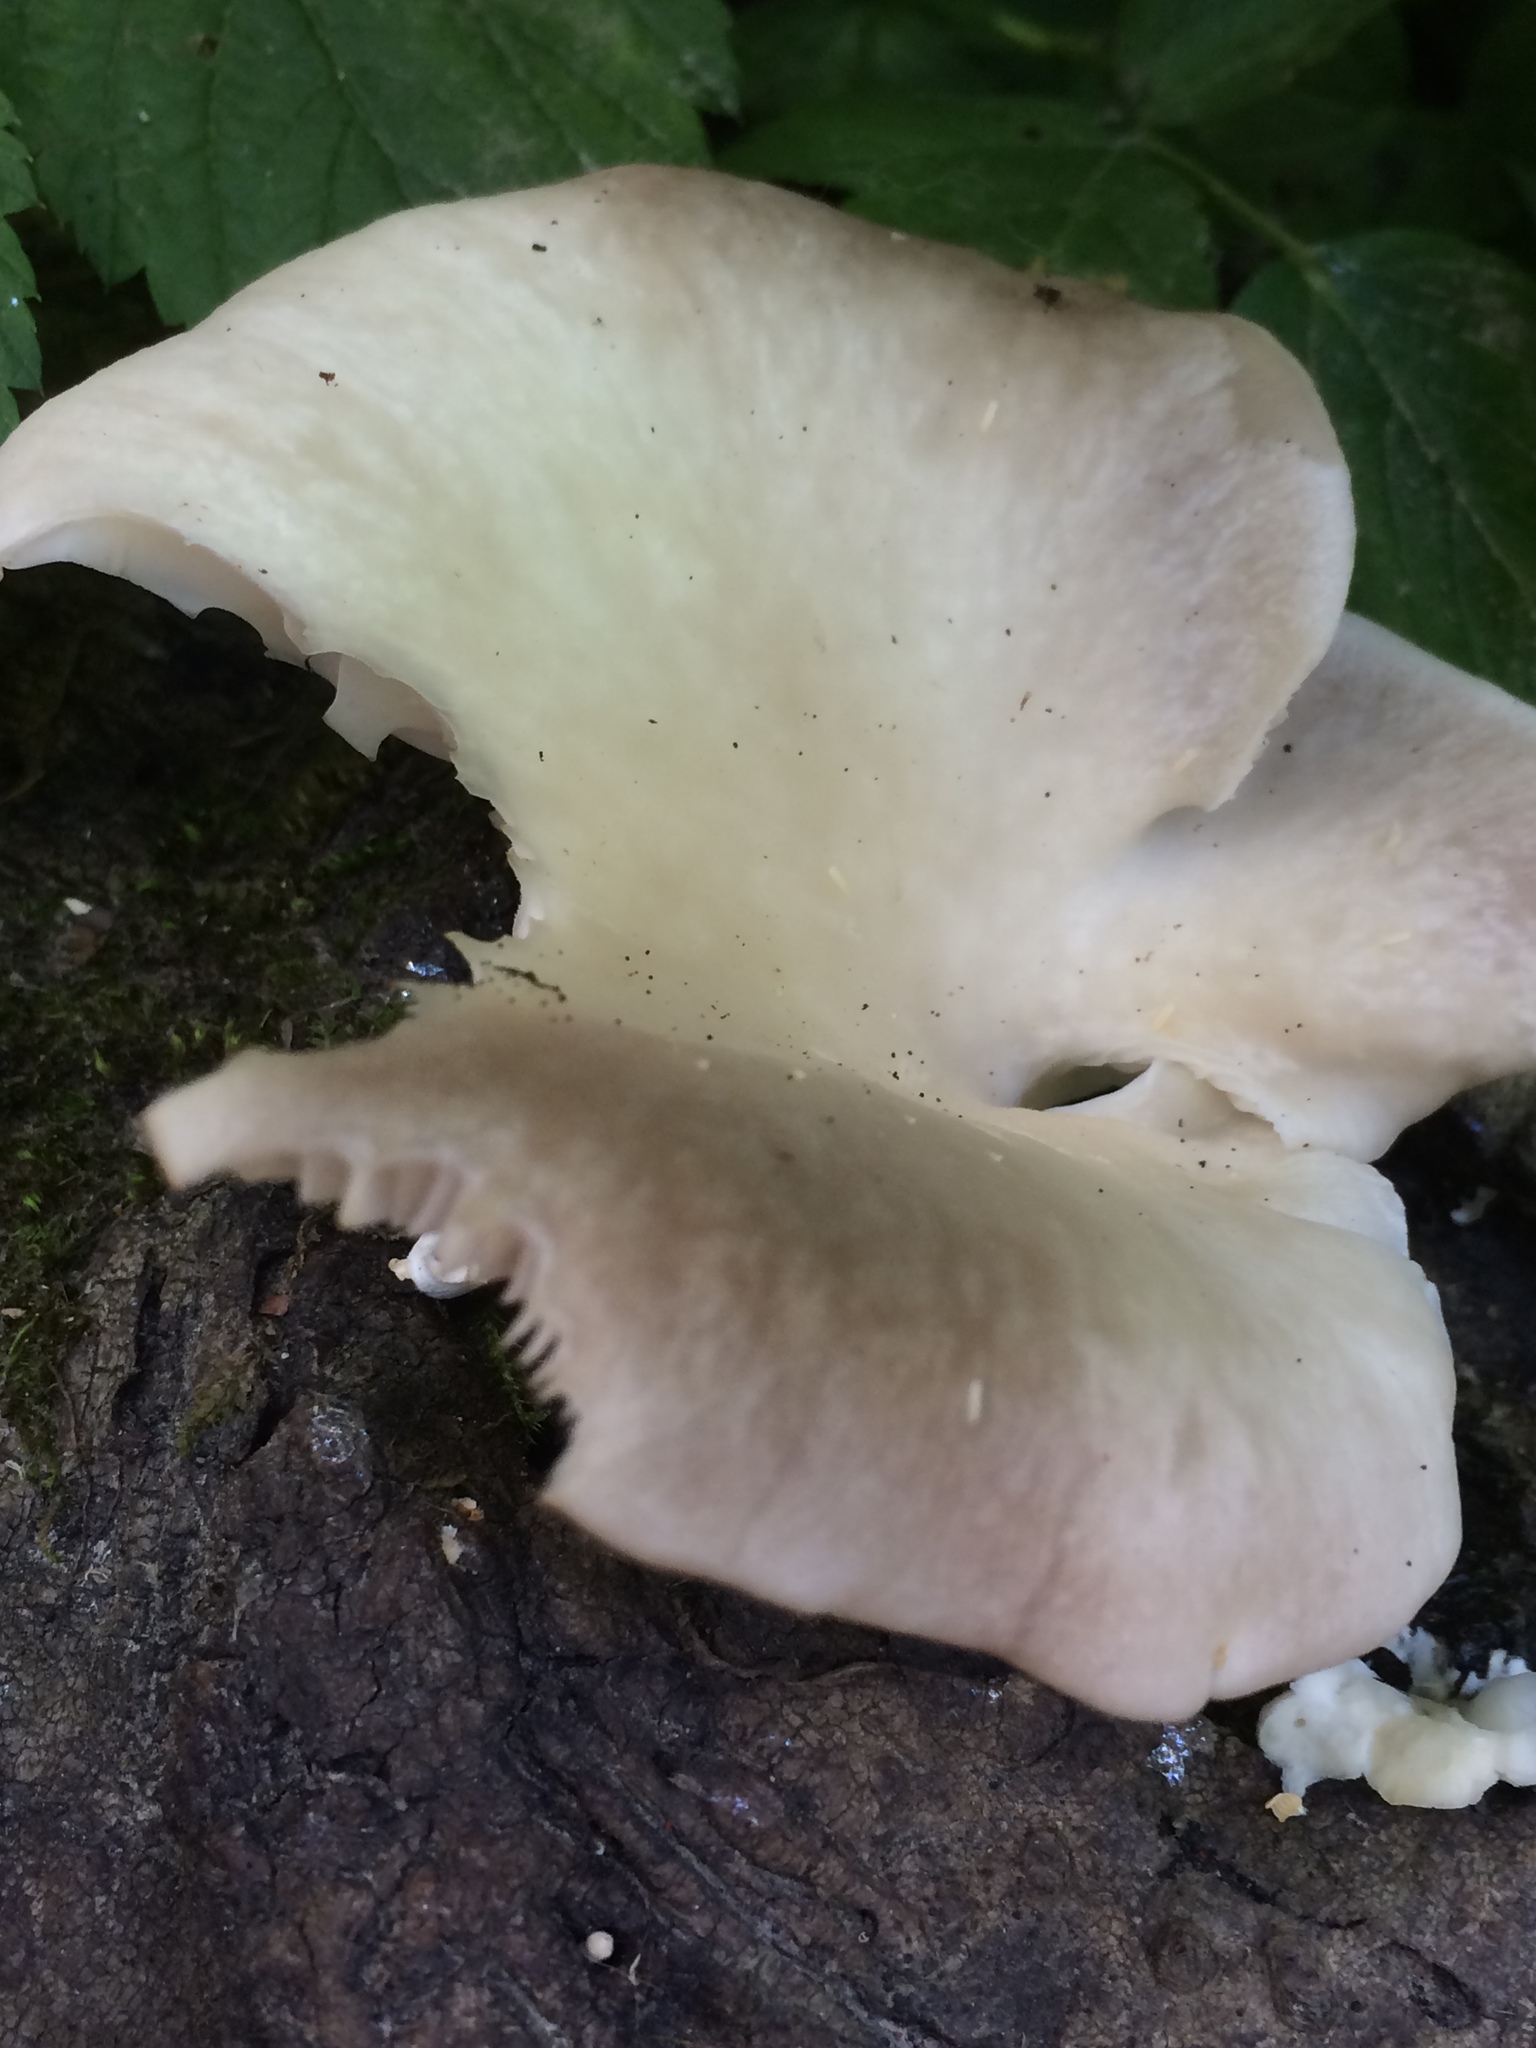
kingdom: Fungi
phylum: Basidiomycota
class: Agaricomycetes
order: Agaricales
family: Pleurotaceae
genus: Pleurotus
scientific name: Pleurotus ostreatus
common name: Oyster mushroom
